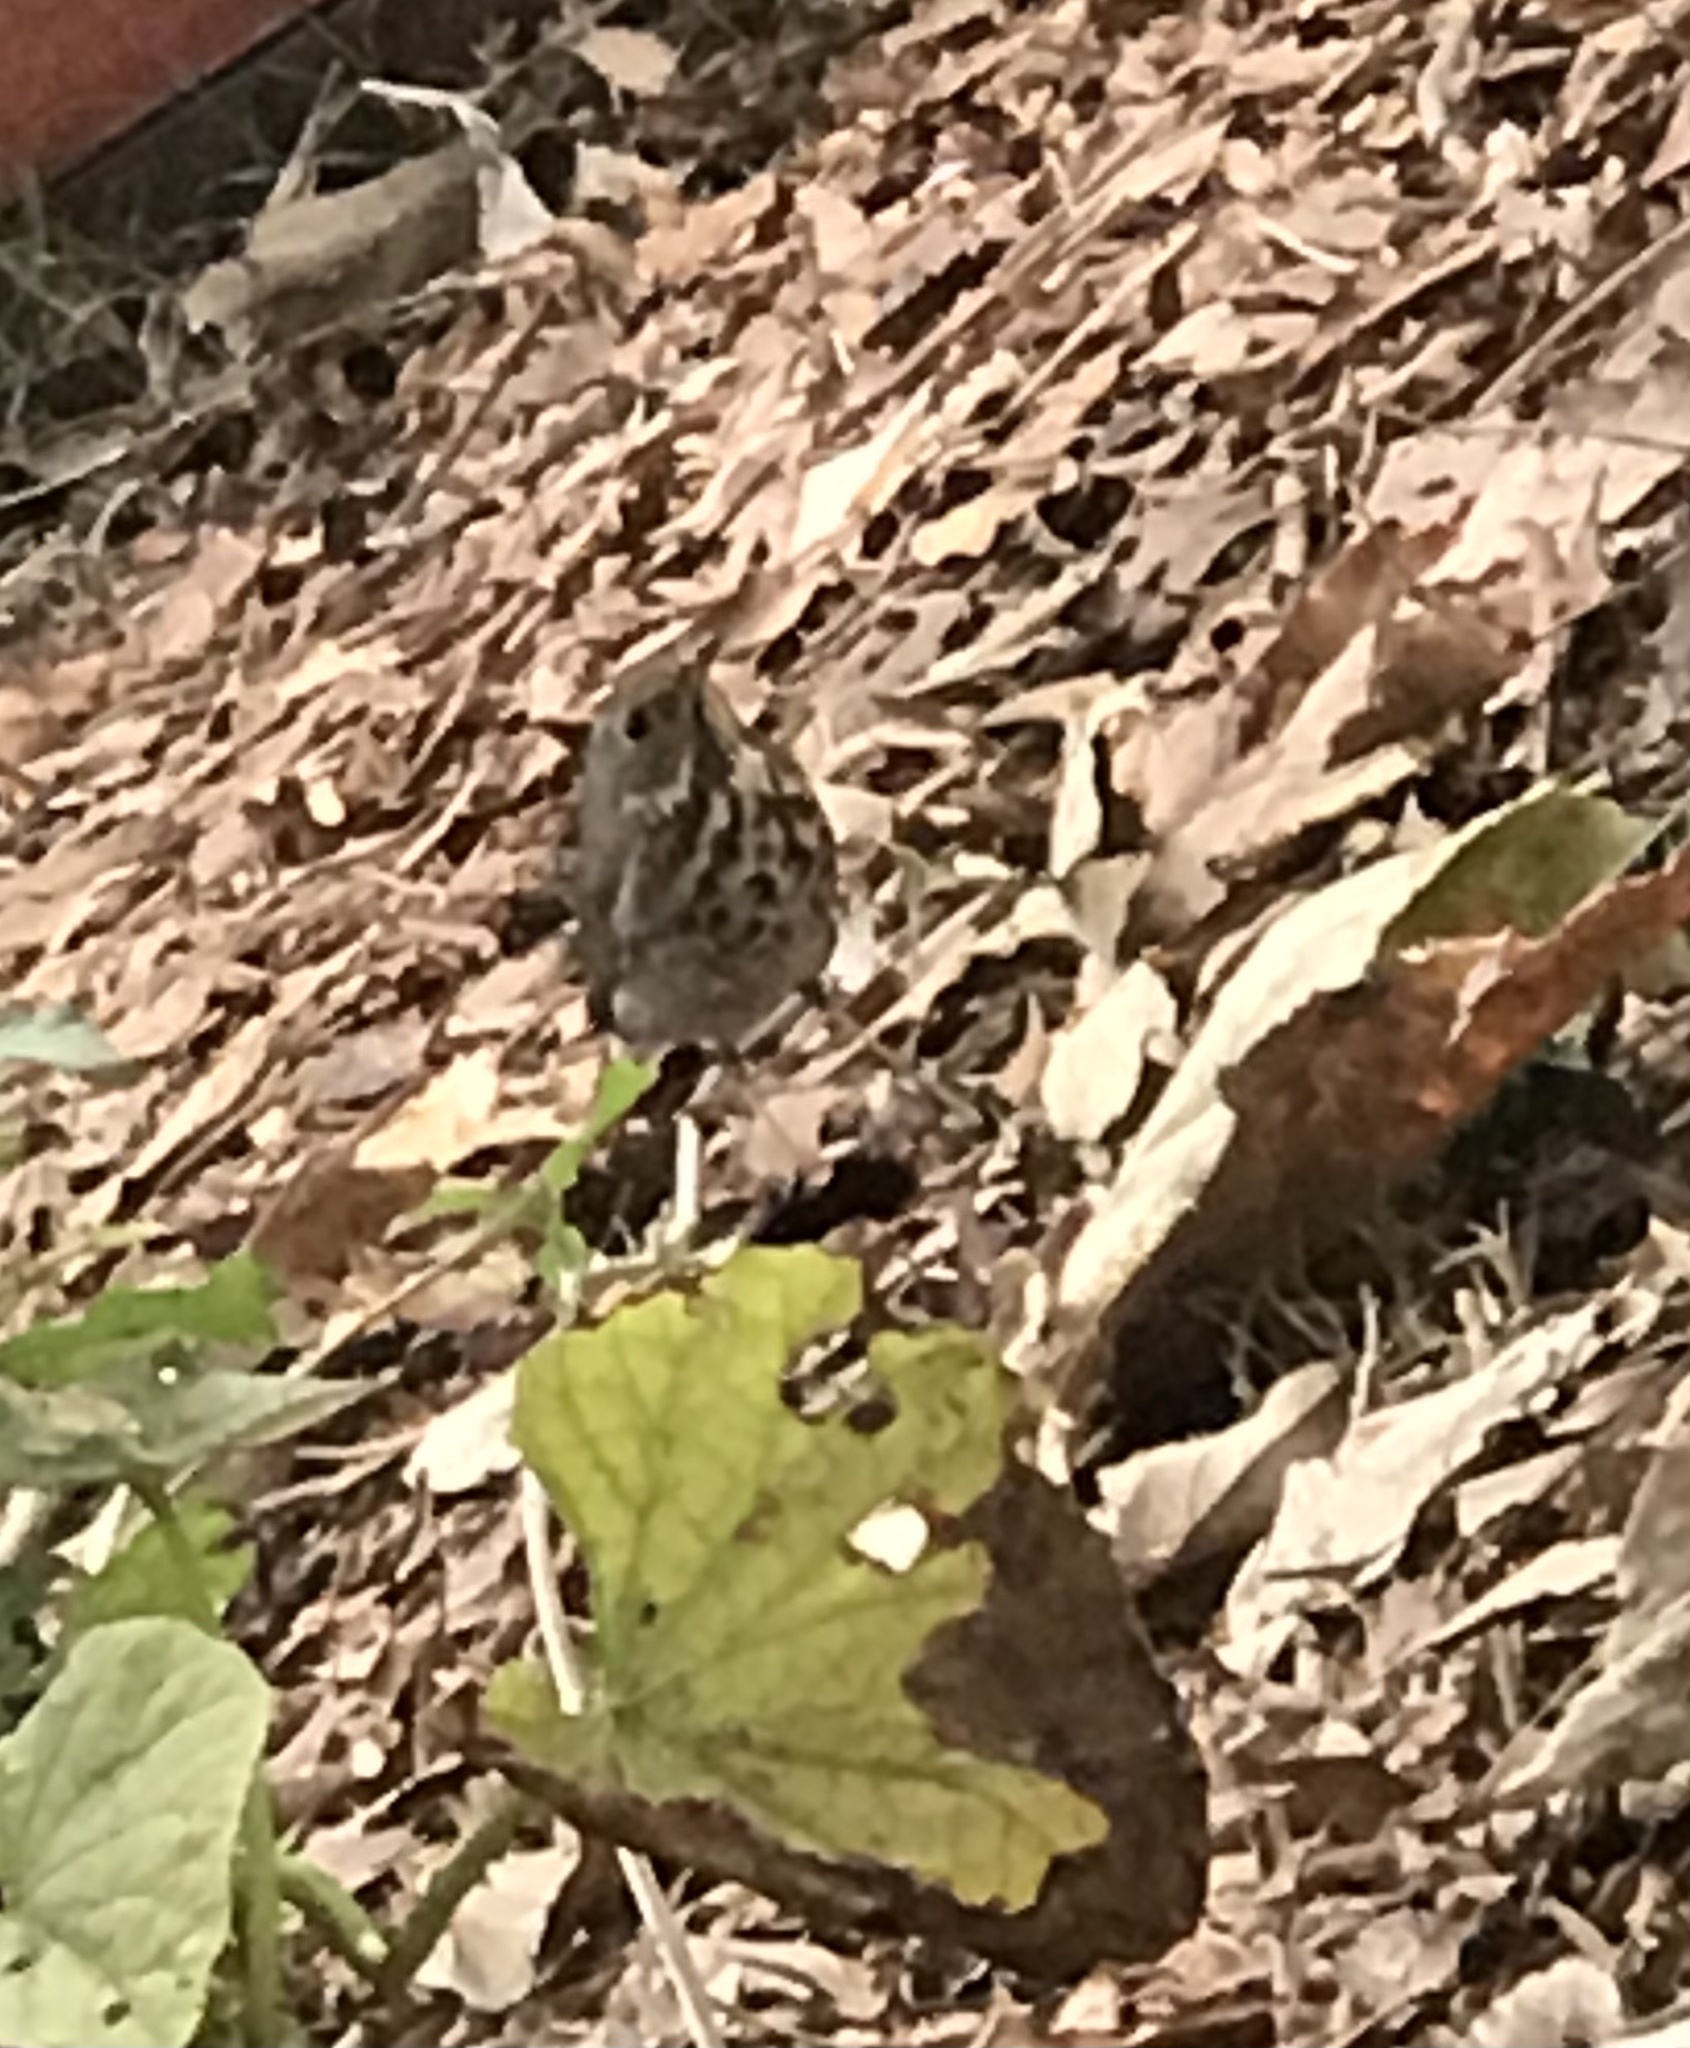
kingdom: Animalia
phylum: Chordata
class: Aves
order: Passeriformes
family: Turdidae
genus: Catharus
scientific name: Catharus guttatus
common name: Hermit thrush
